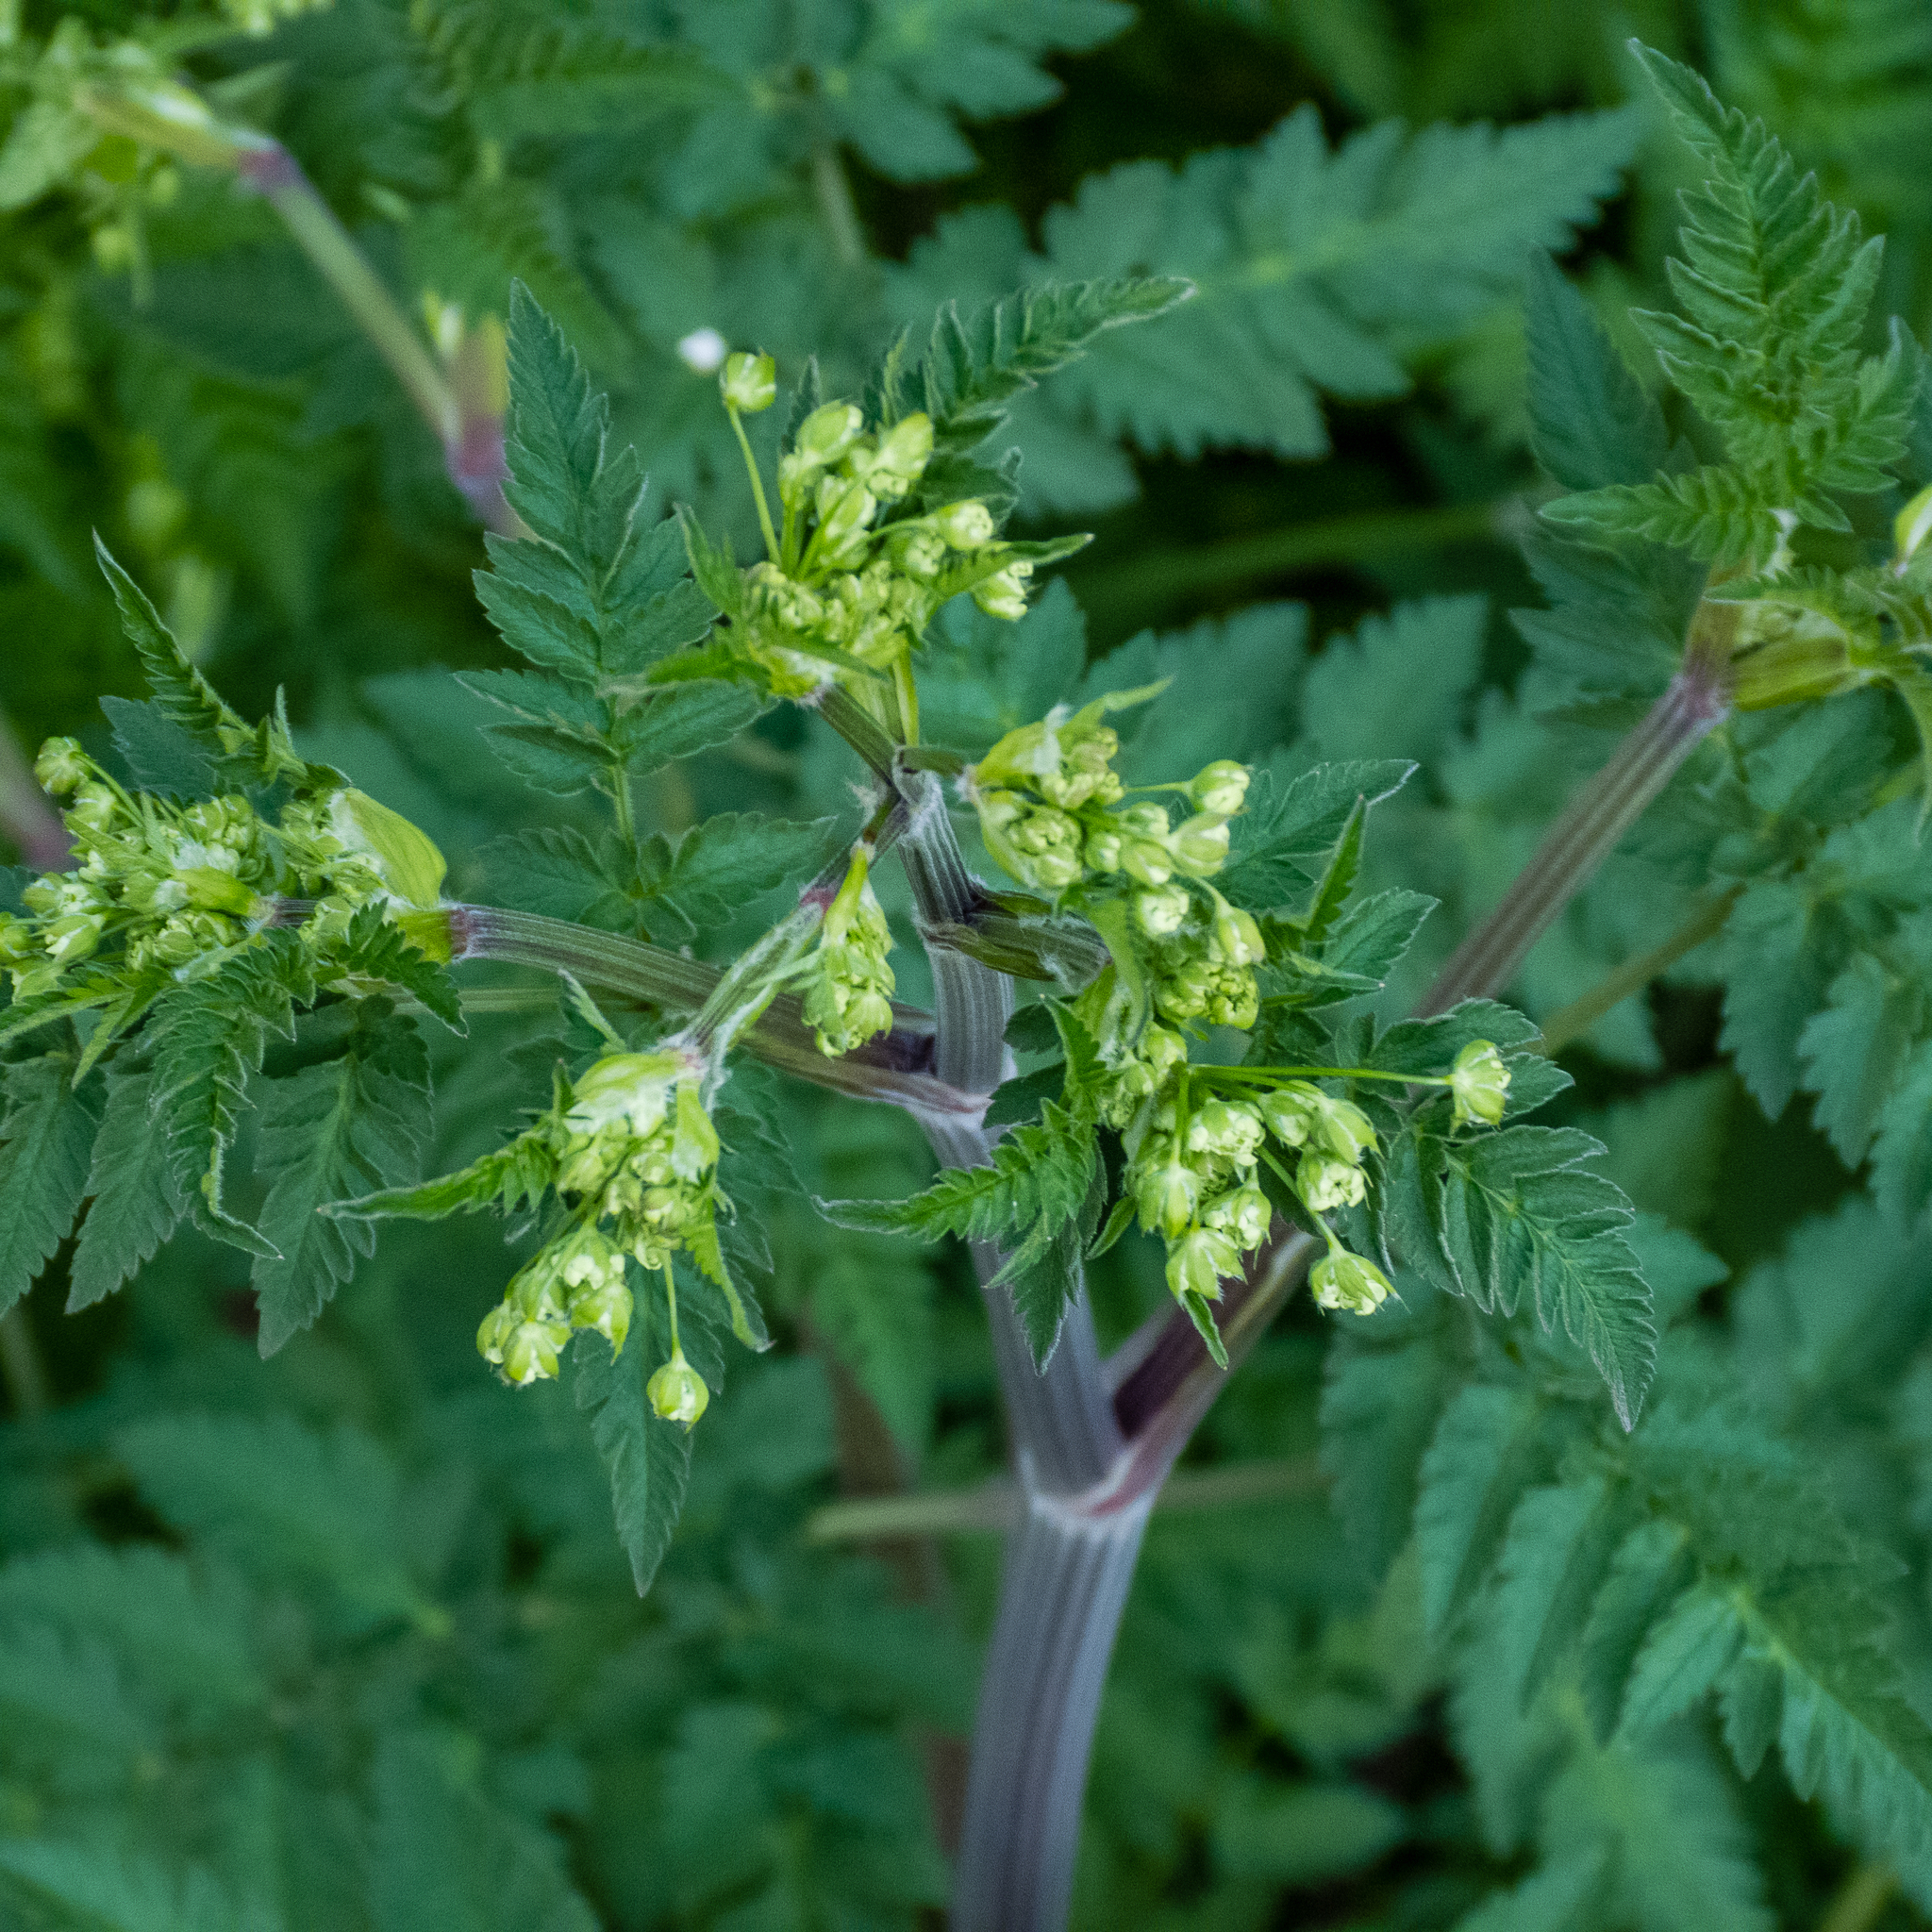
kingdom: Plantae
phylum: Tracheophyta
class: Magnoliopsida
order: Apiales
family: Apiaceae
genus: Anthriscus
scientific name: Anthriscus sylvestris
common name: Cow parsley
